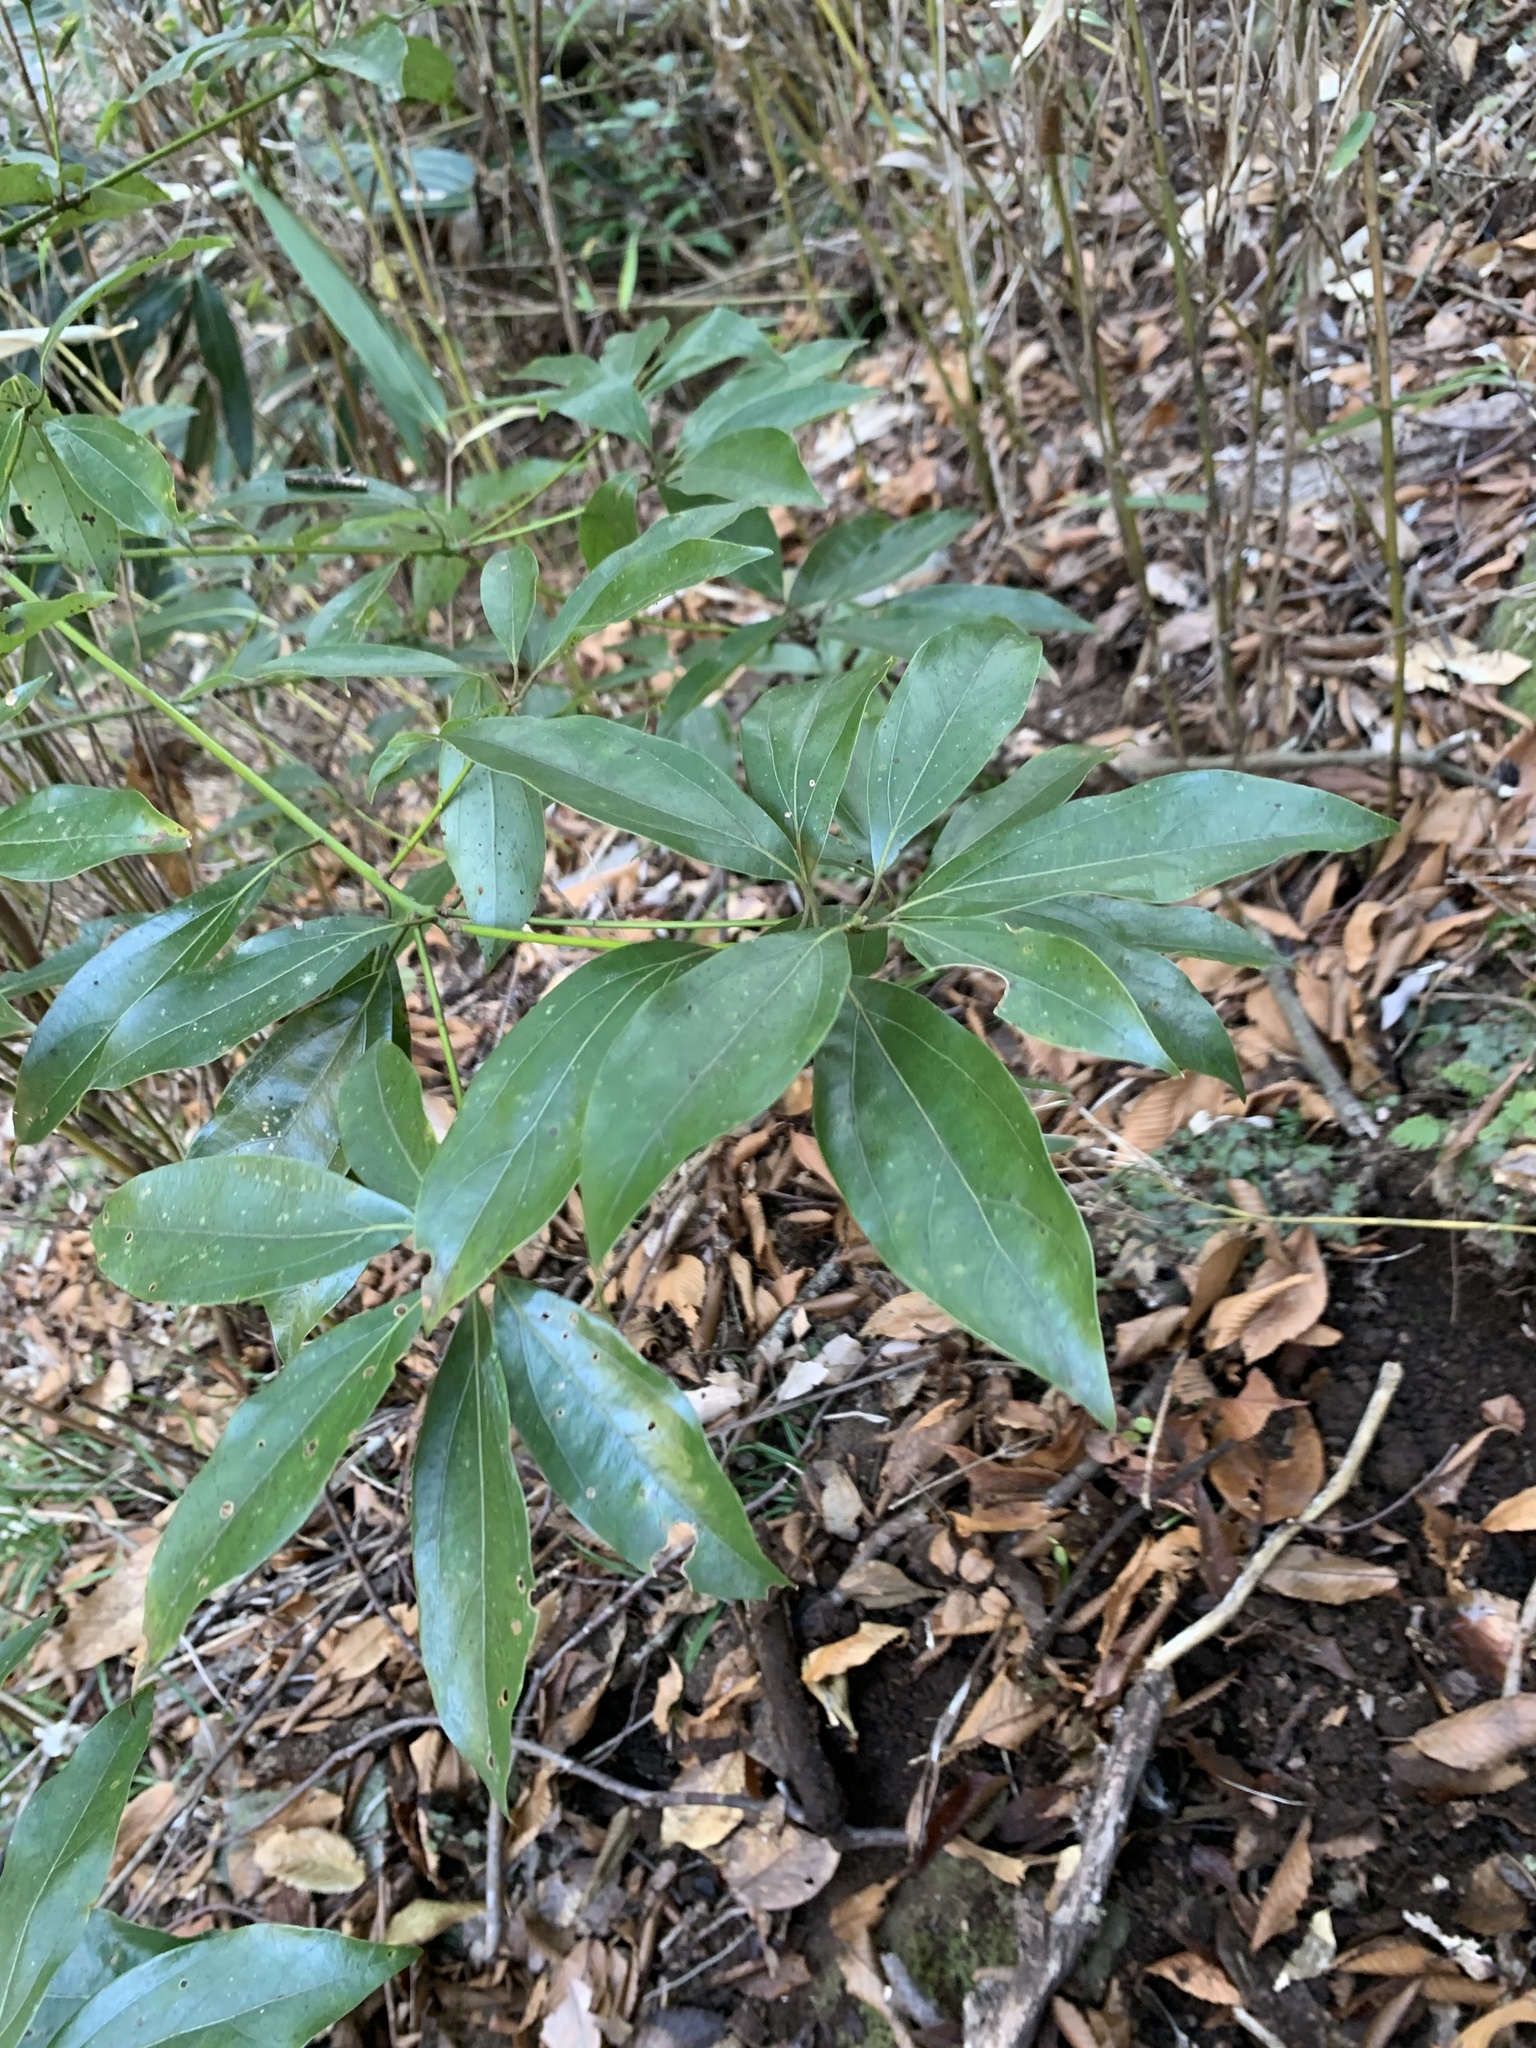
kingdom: Plantae
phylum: Tracheophyta
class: Magnoliopsida
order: Laurales
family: Lauraceae
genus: Neolitsea
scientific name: Neolitsea sericea
